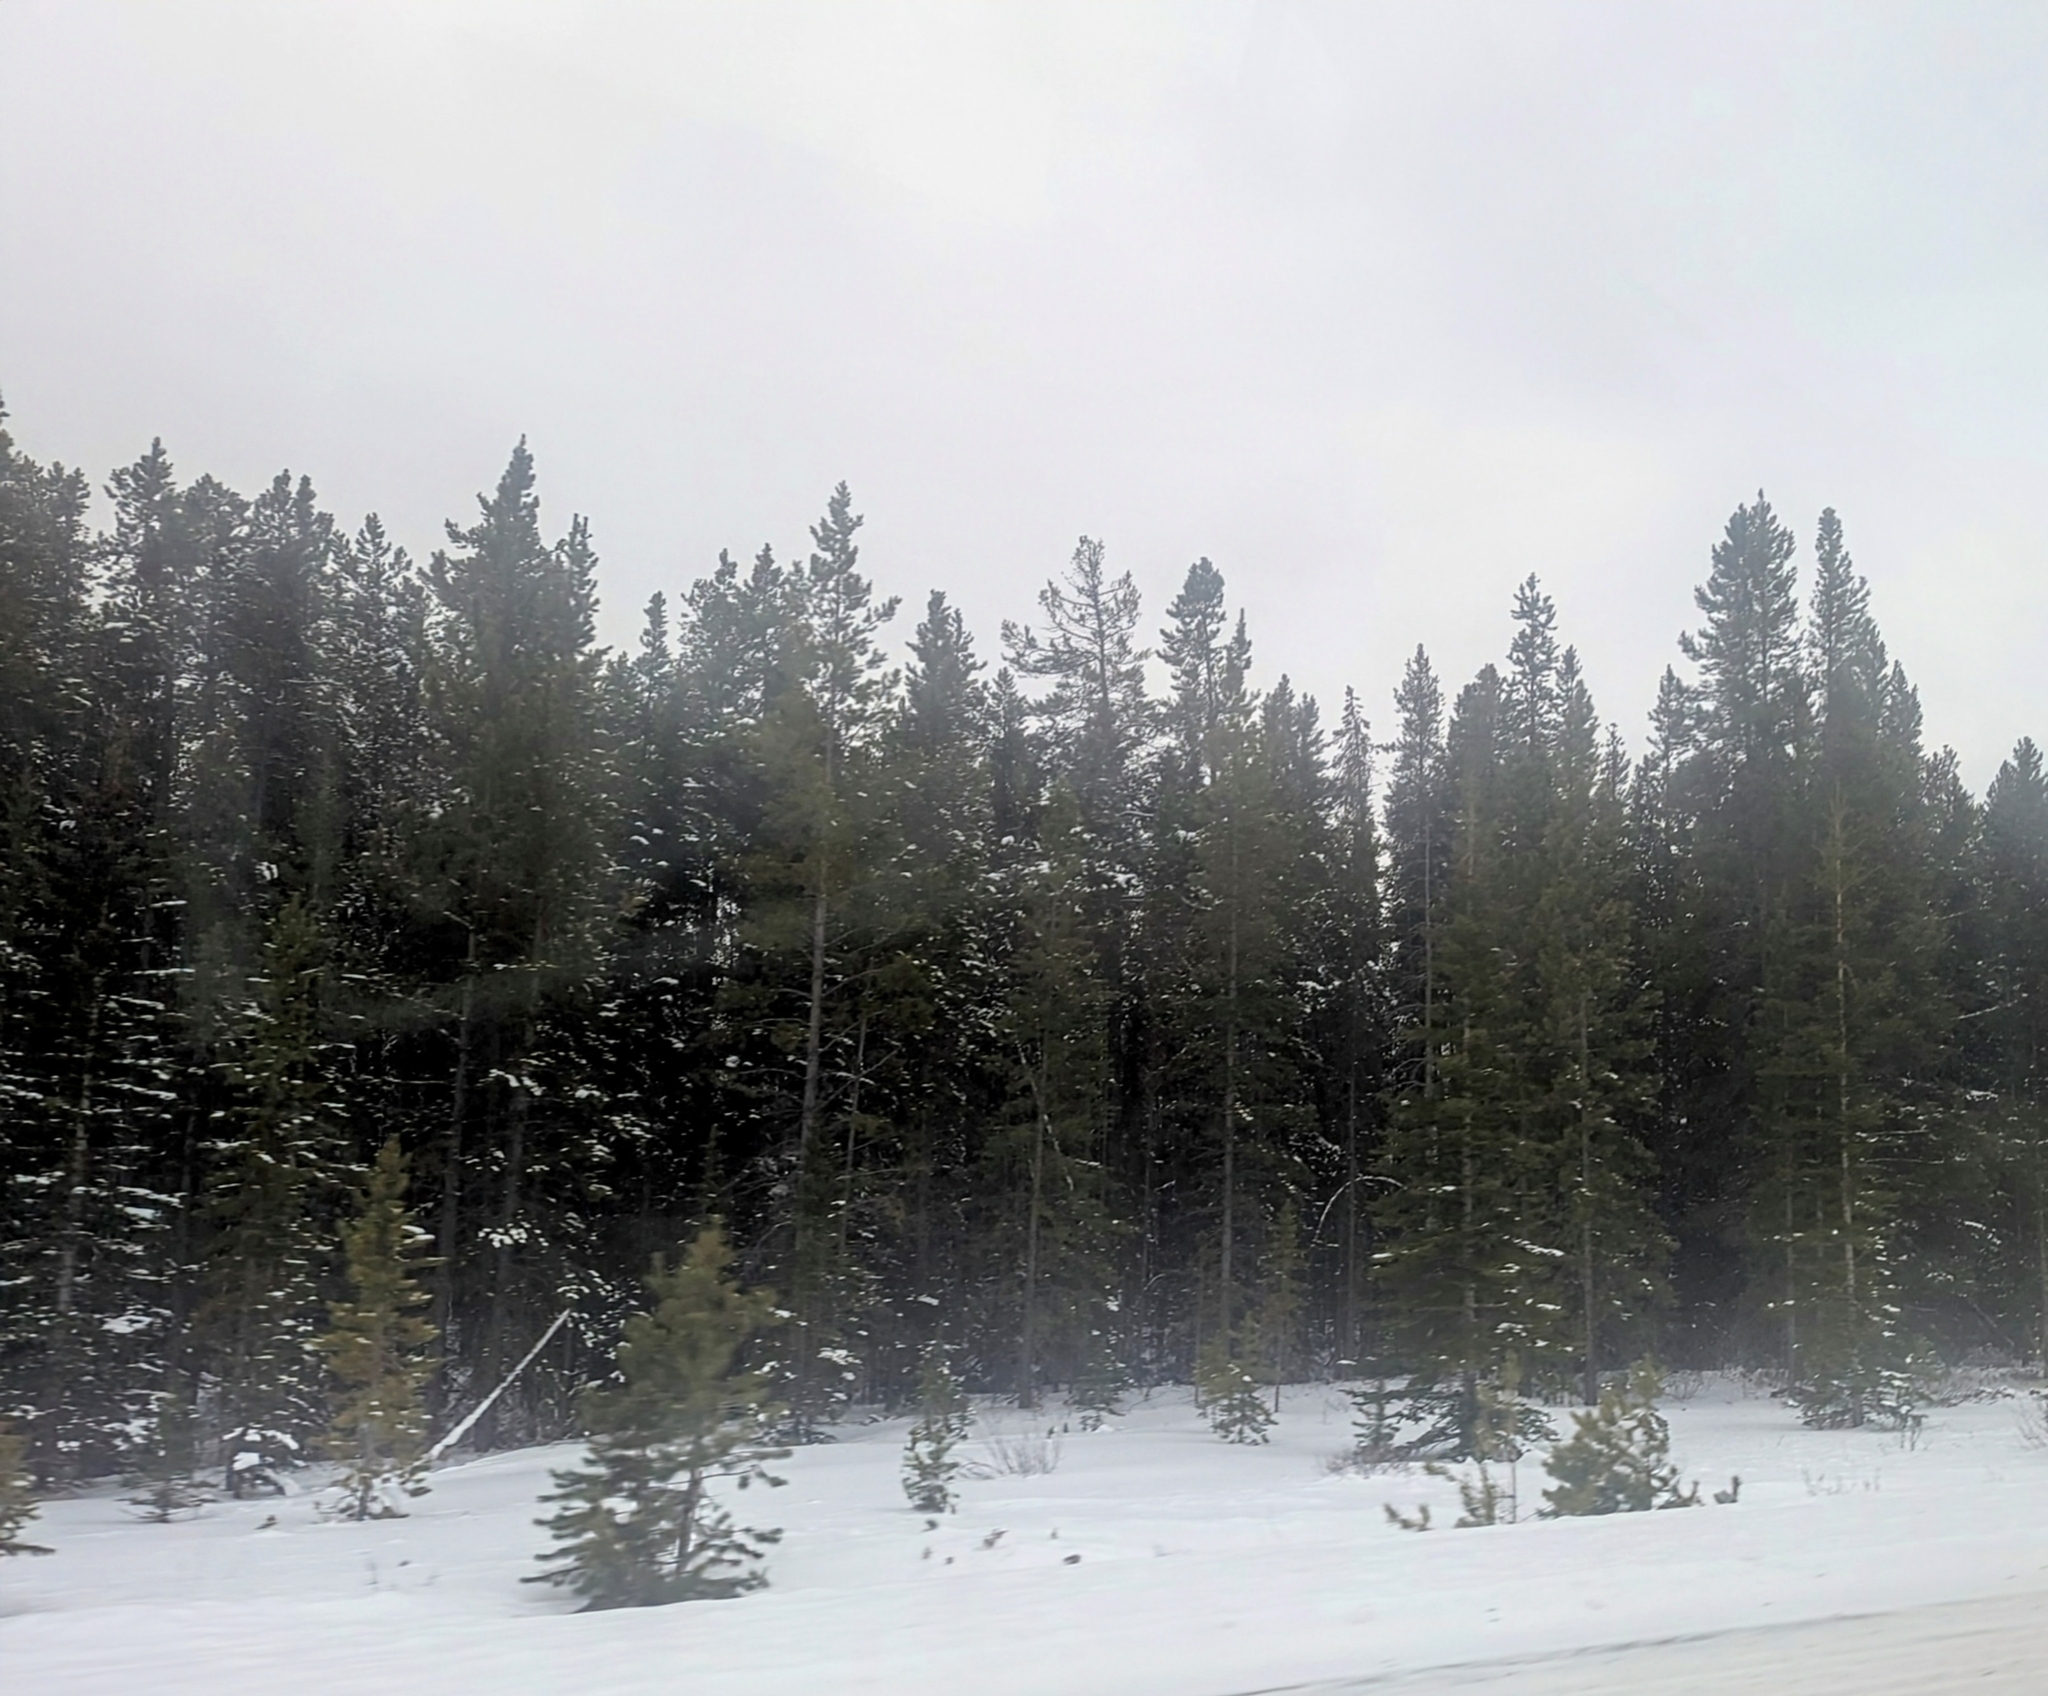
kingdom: Plantae
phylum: Tracheophyta
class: Pinopsida
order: Pinales
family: Pinaceae
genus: Pinus
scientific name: Pinus contorta
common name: Lodgepole pine
